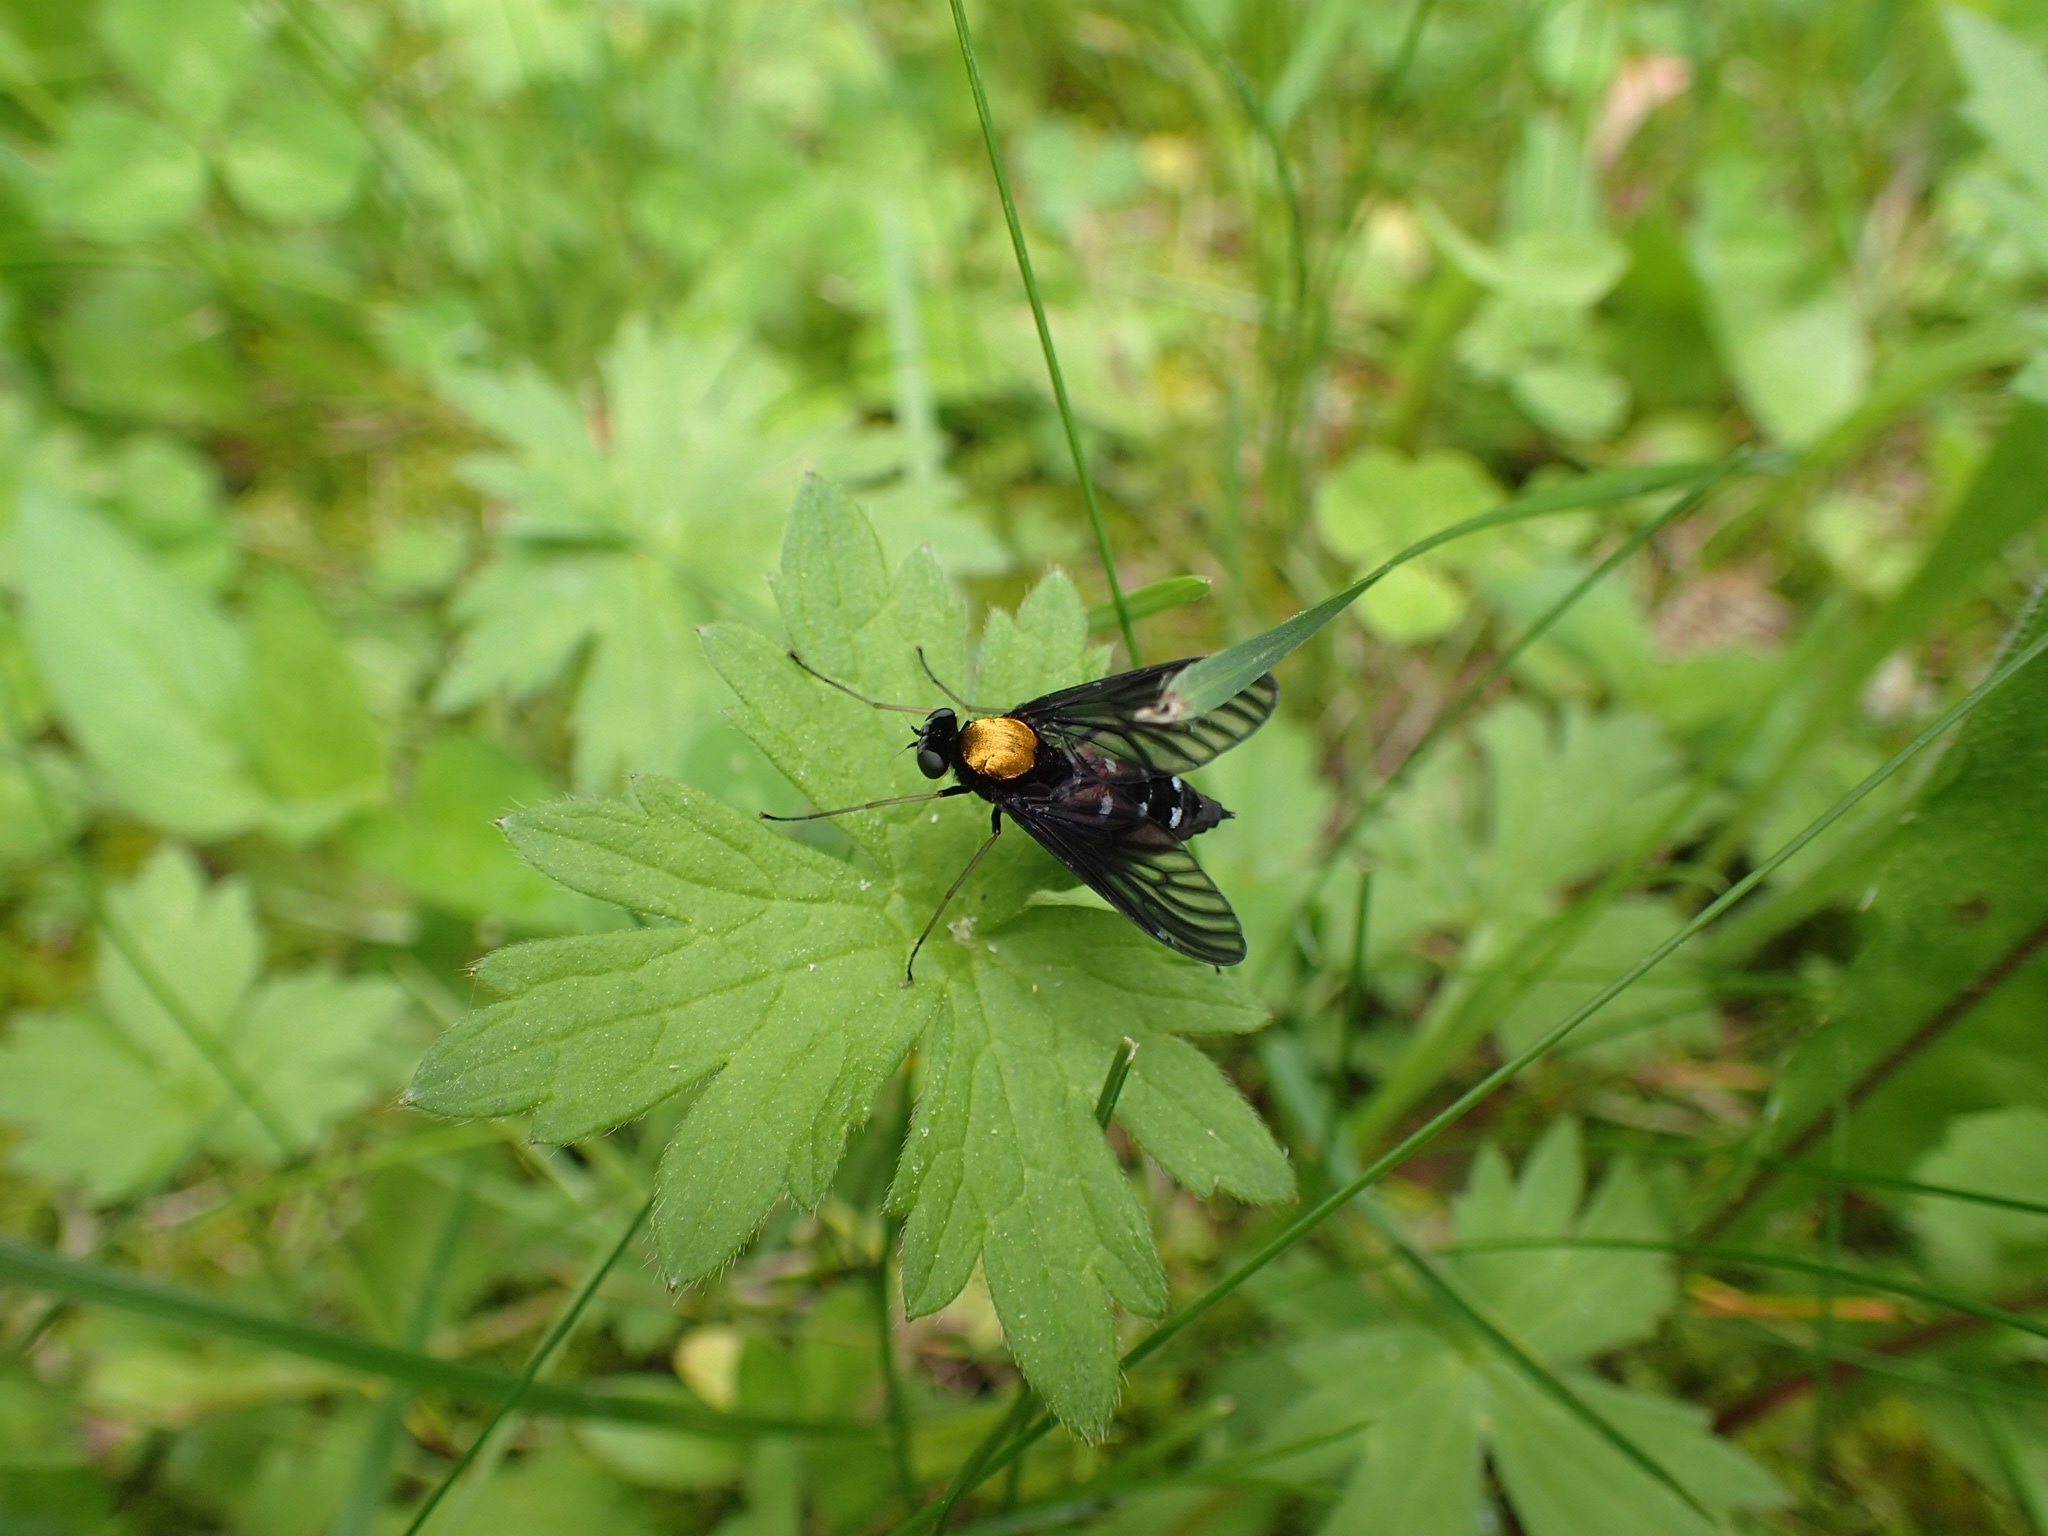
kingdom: Animalia
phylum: Arthropoda
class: Insecta
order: Diptera
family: Rhagionidae
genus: Chrysopilus
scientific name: Chrysopilus thoracicus
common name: Golden-backed snipe fly
